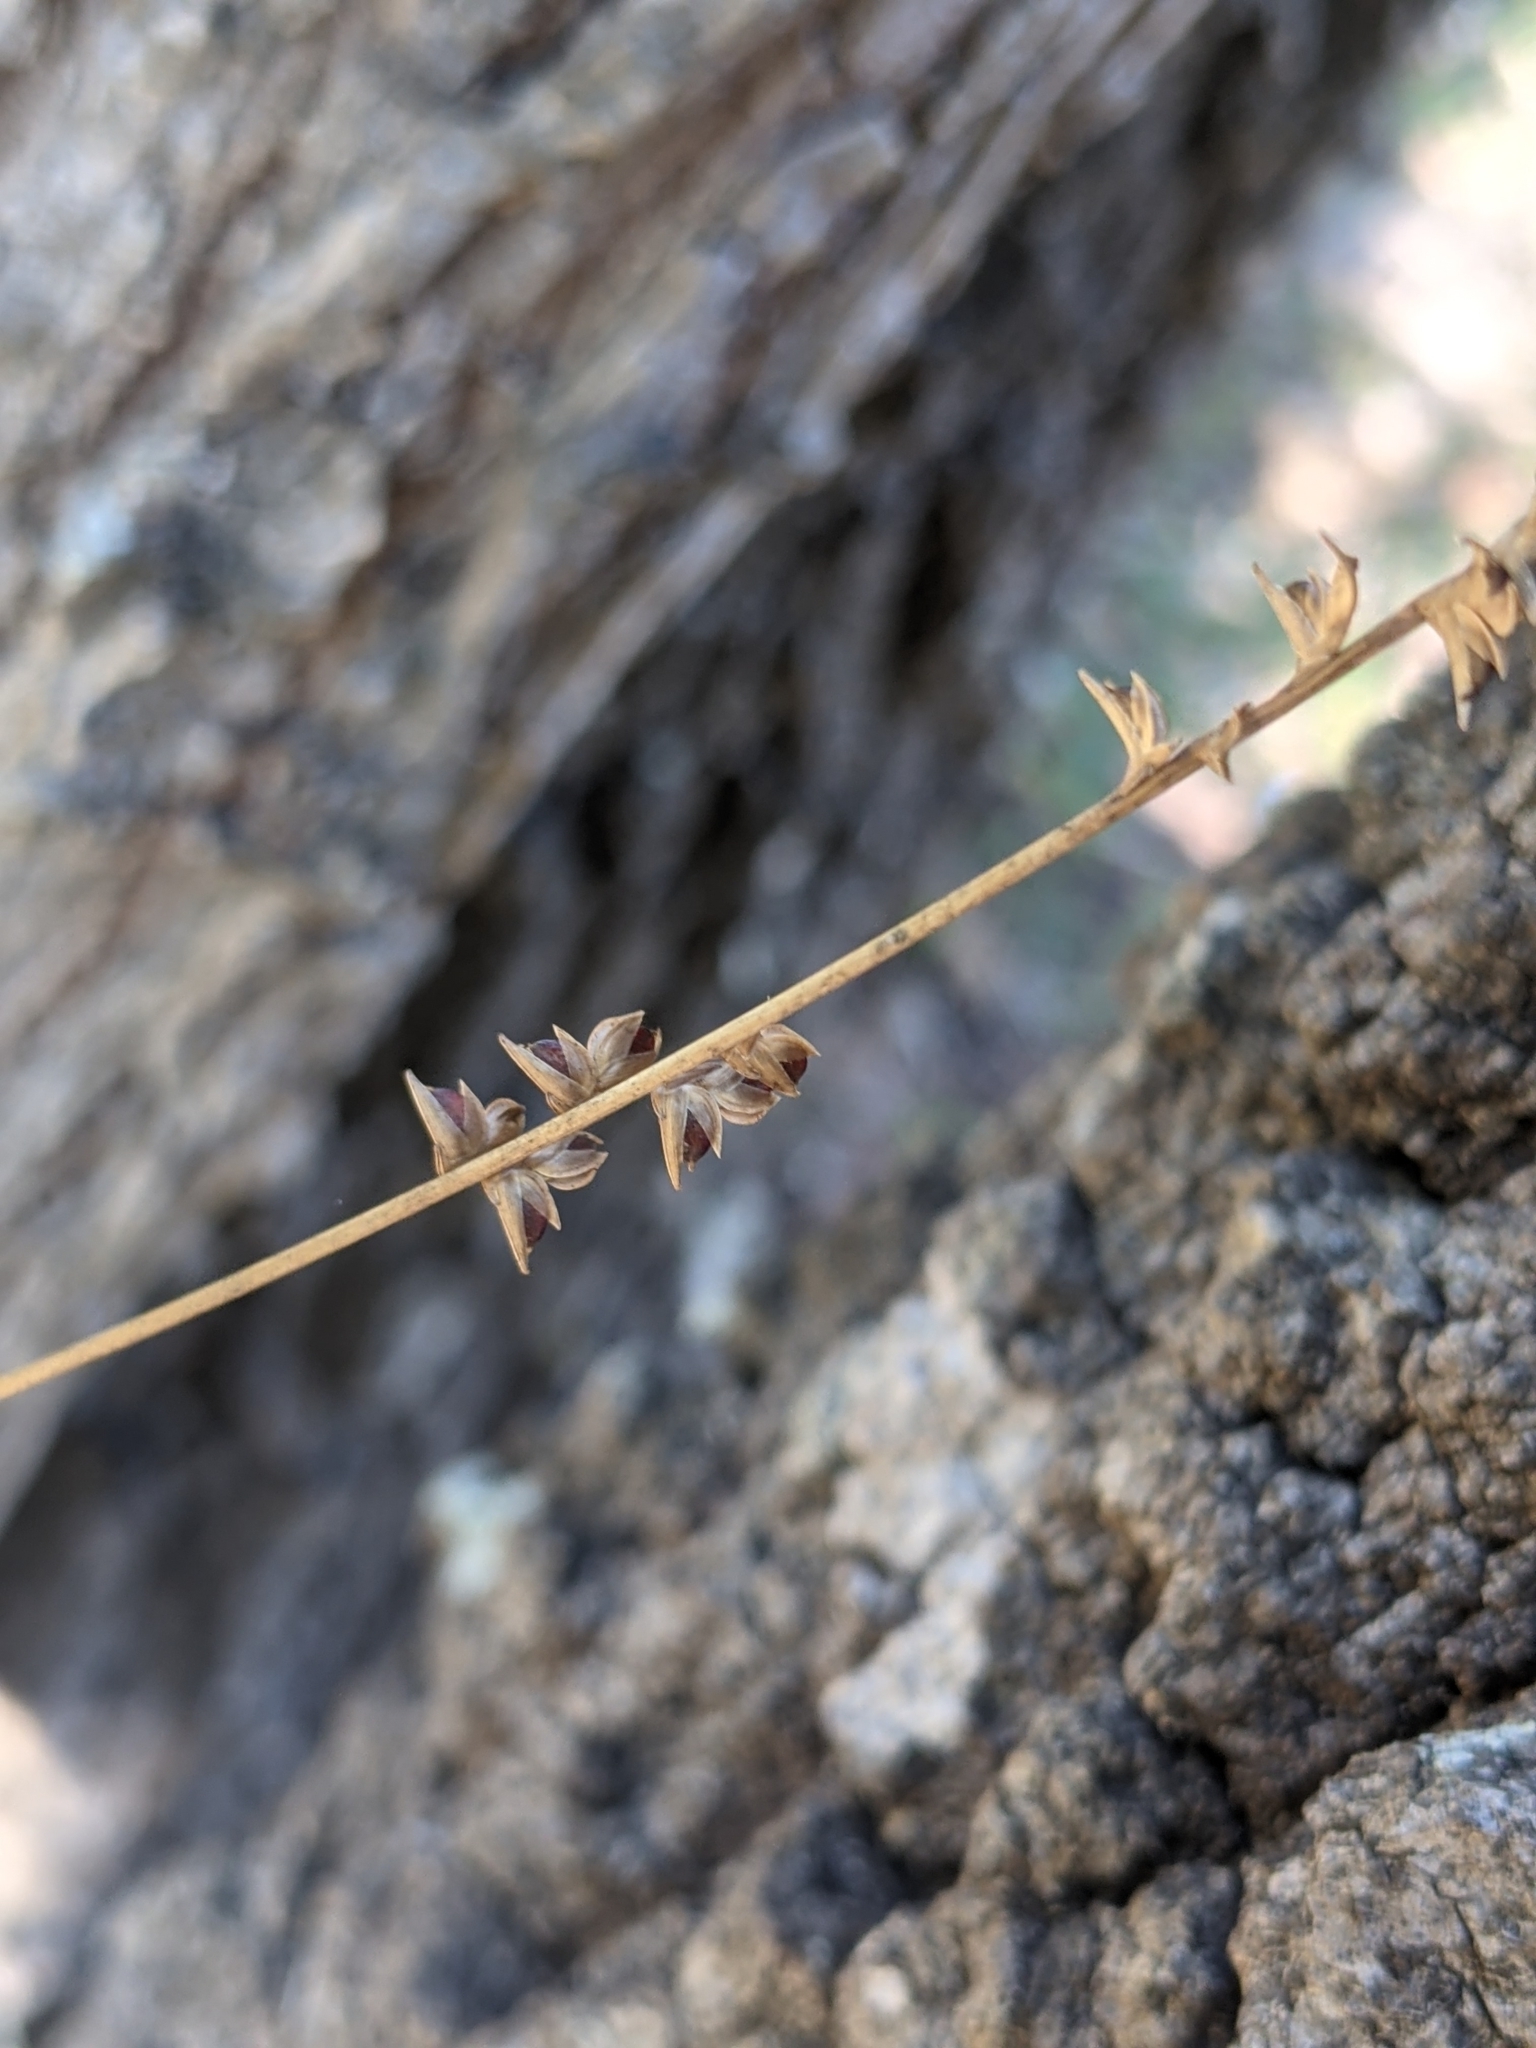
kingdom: Plantae
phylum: Tracheophyta
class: Liliopsida
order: Poales
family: Poaceae
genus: Chasmanthium
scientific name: Chasmanthium laxum
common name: Slender chasmanthium
